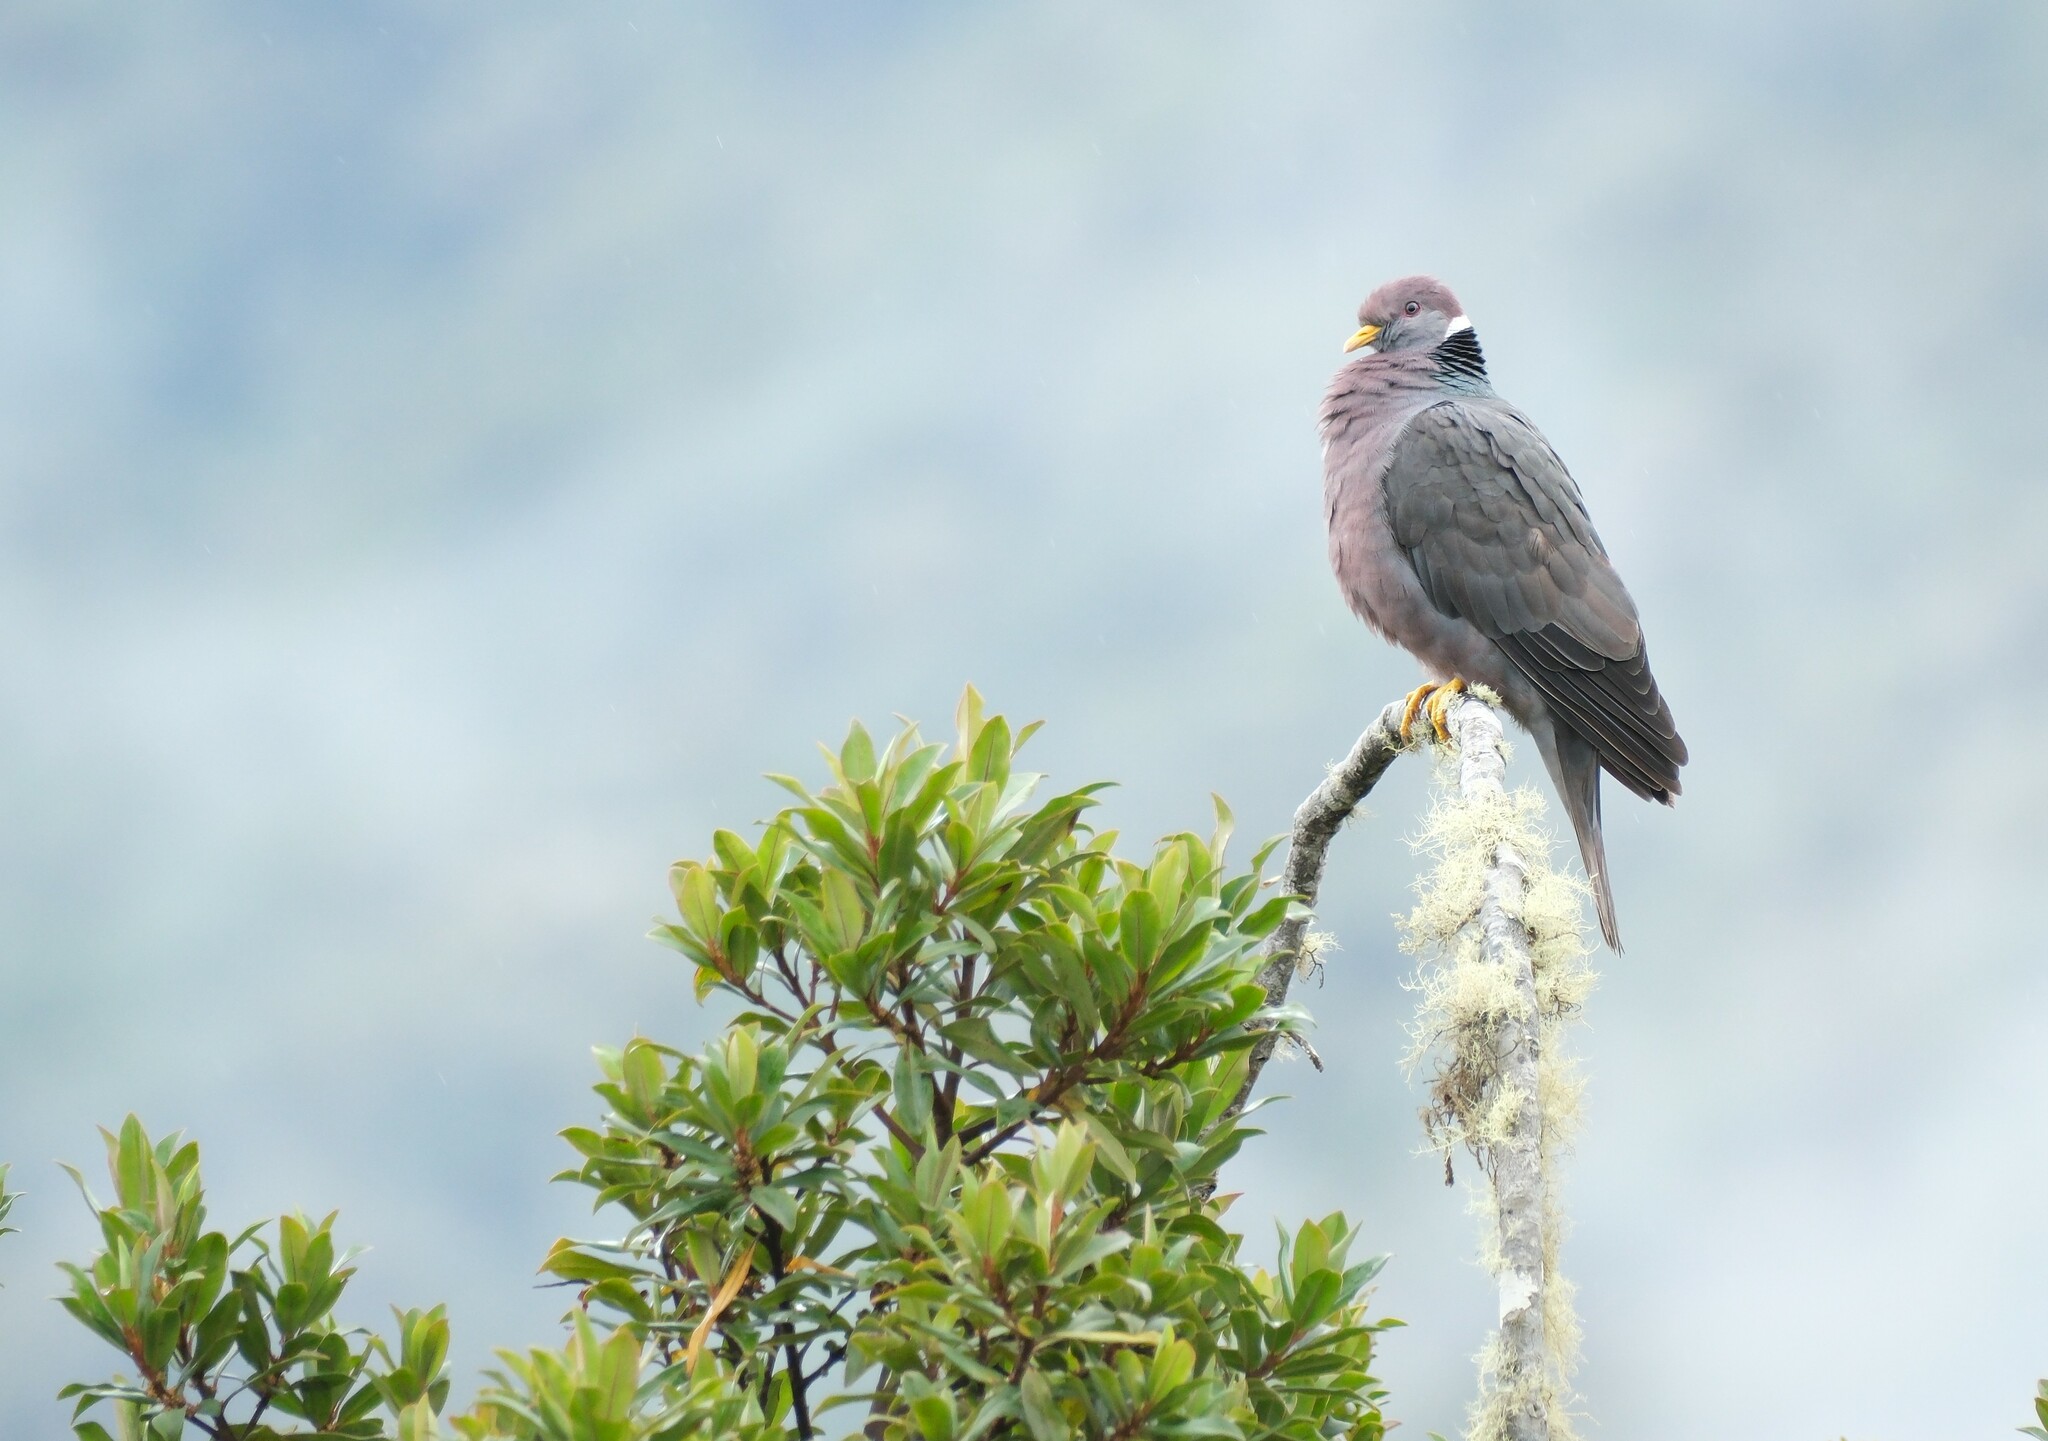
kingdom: Animalia
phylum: Chordata
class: Aves
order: Columbiformes
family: Columbidae
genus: Patagioenas
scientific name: Patagioenas fasciata
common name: Band-tailed pigeon
